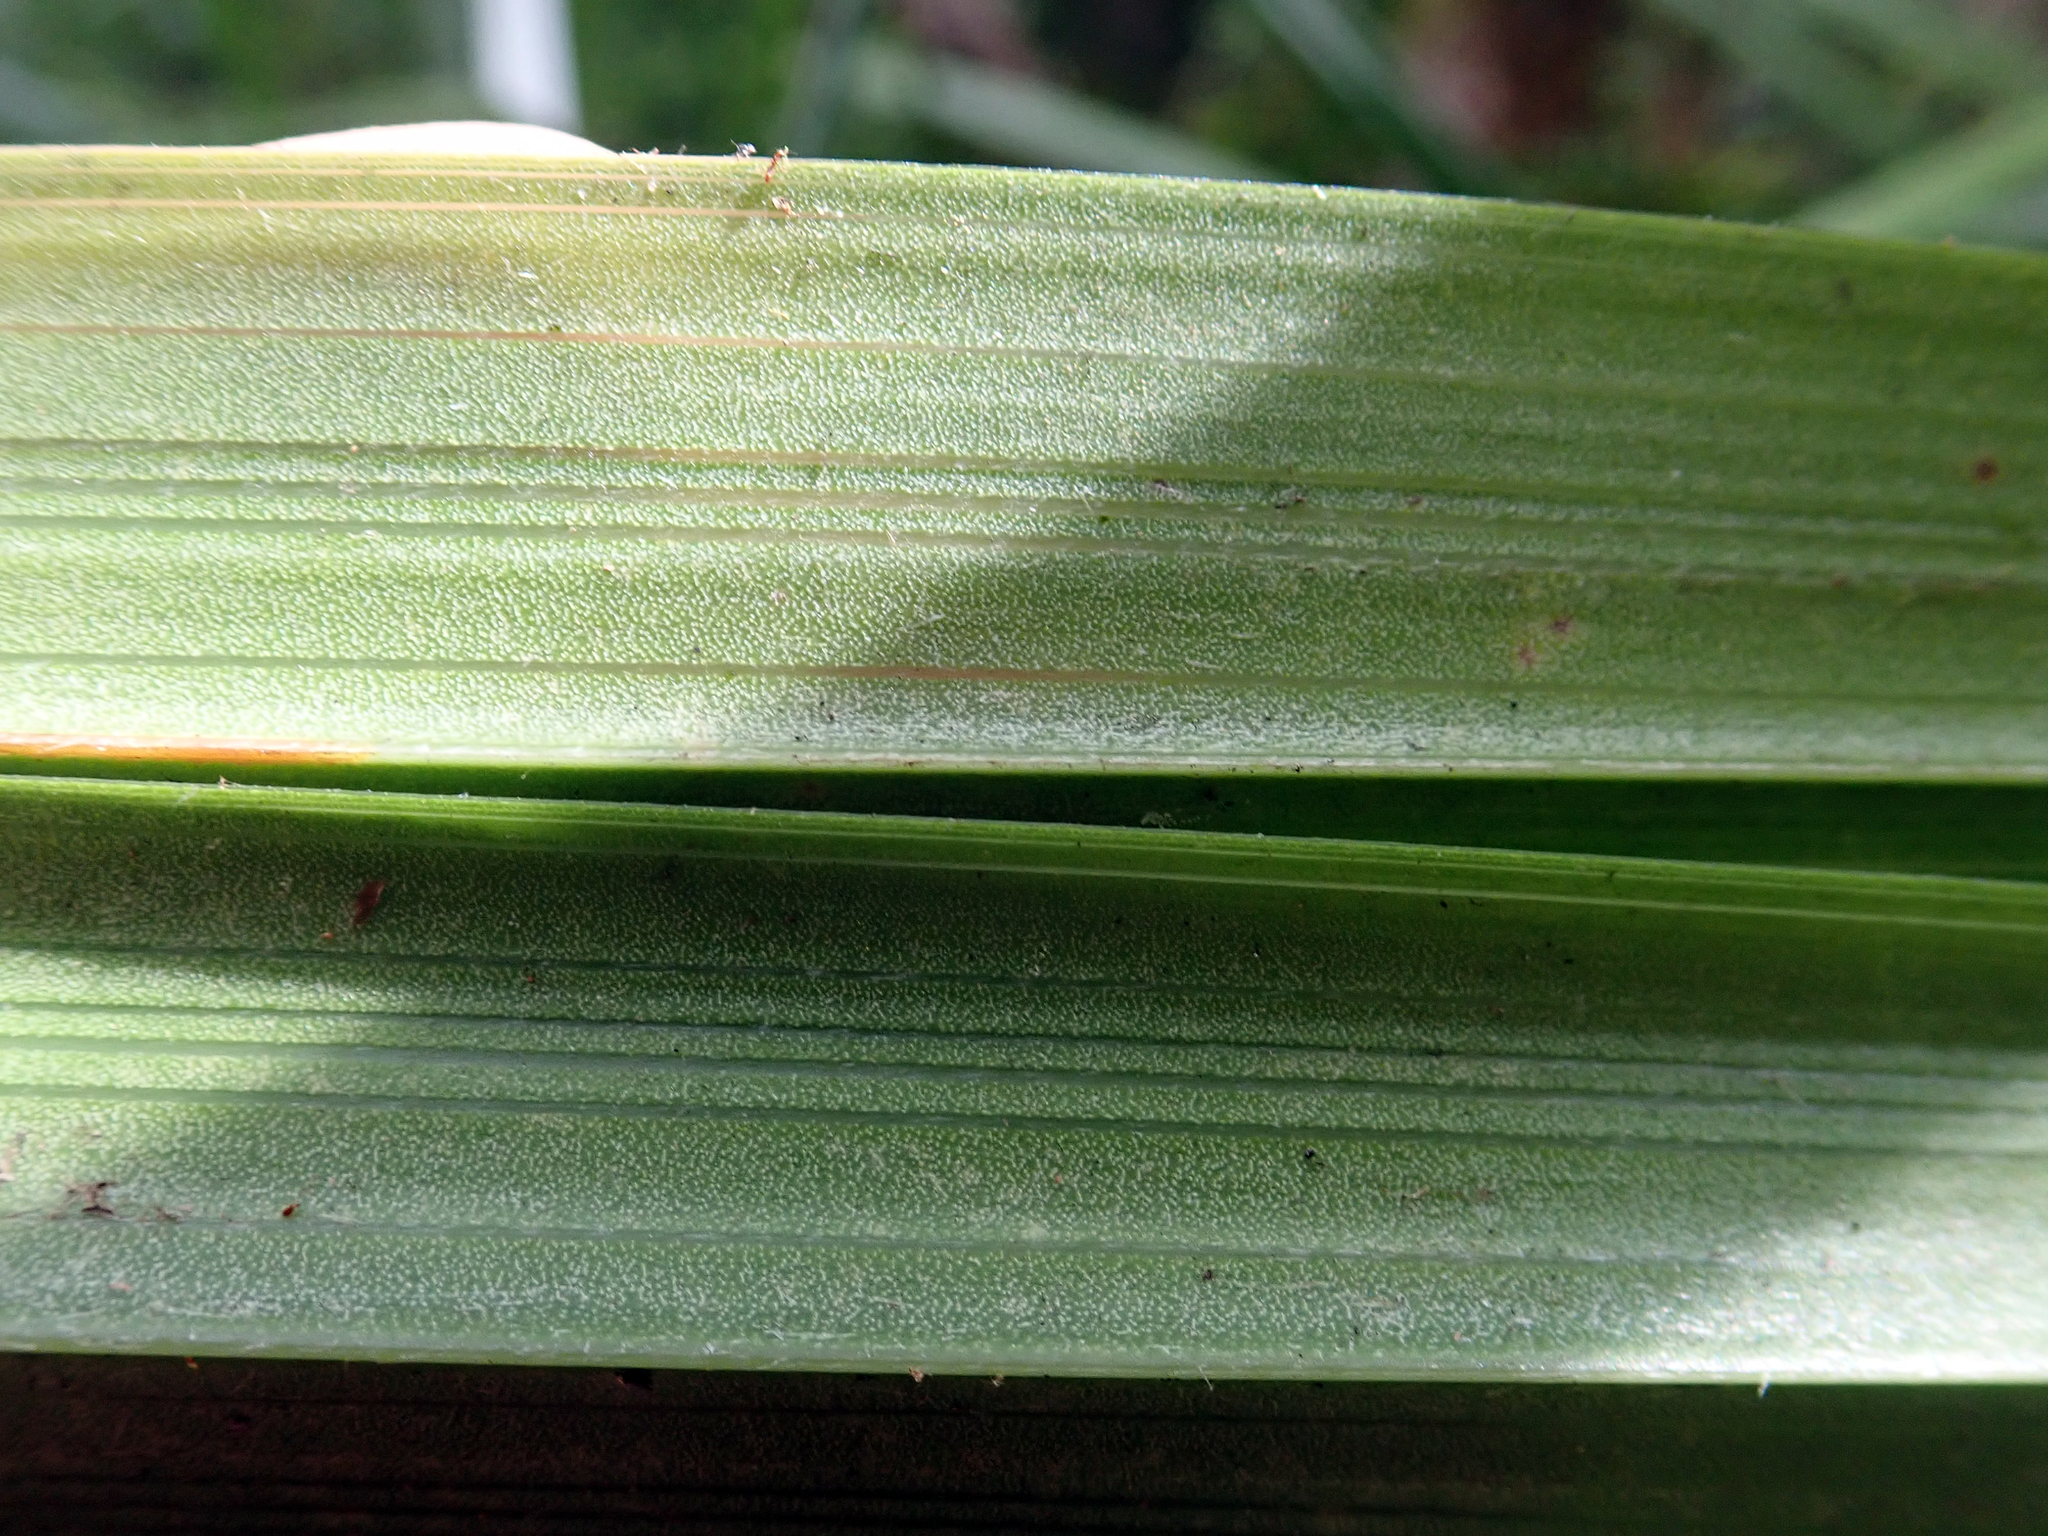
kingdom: Plantae
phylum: Tracheophyta
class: Liliopsida
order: Asparagales
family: Asteliaceae
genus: Astelia
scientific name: Astelia trinervia
